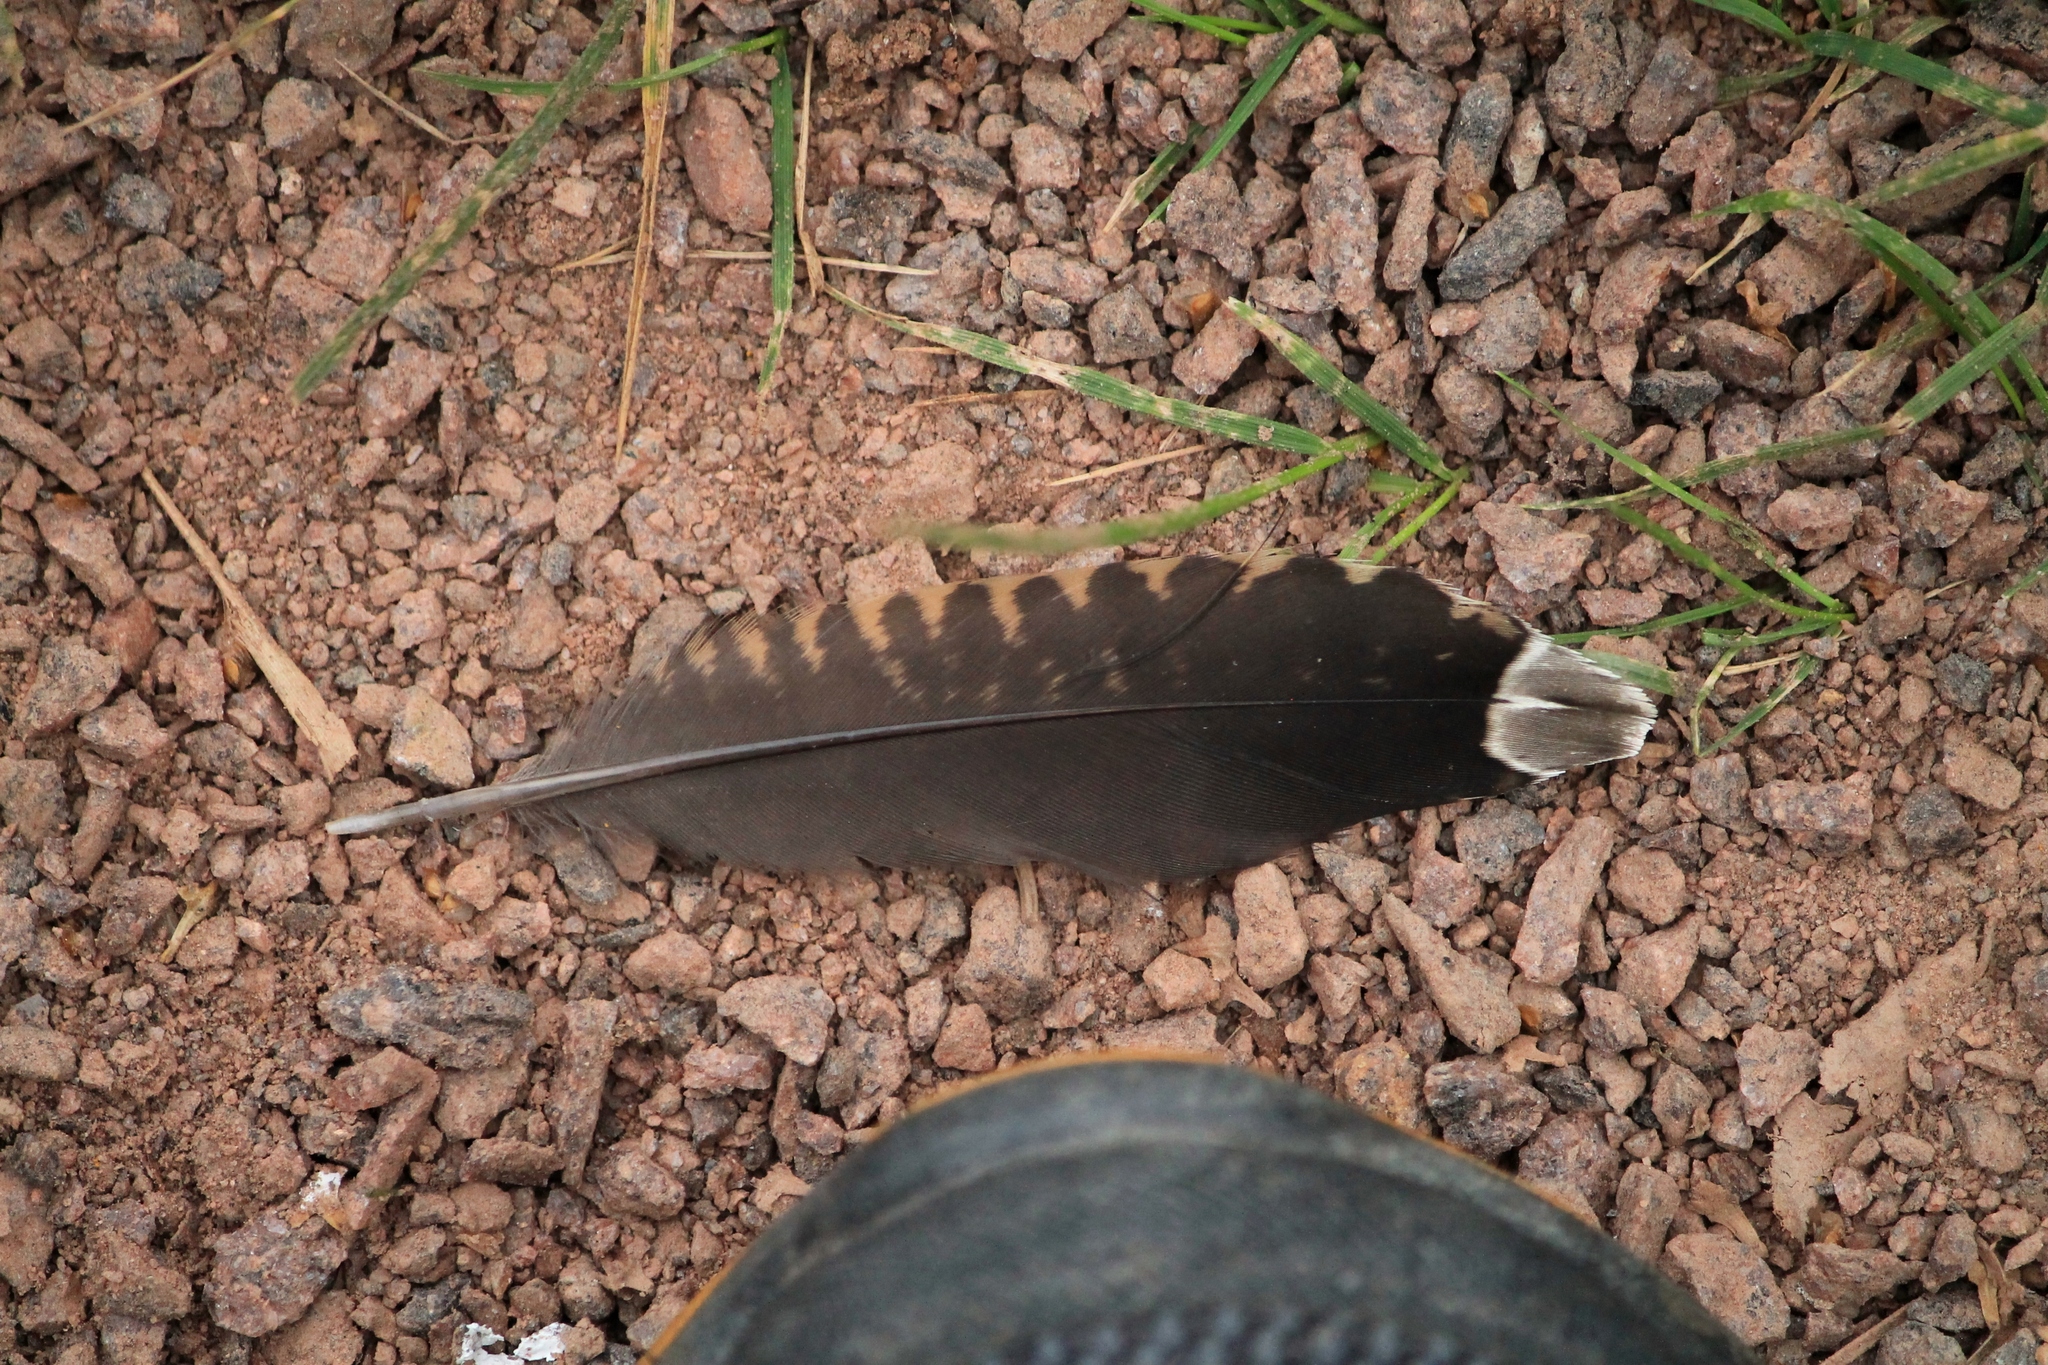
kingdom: Animalia
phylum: Chordata
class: Aves
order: Charadriiformes
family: Scolopacidae
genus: Scolopax
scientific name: Scolopax rusticola
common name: Eurasian woodcock
